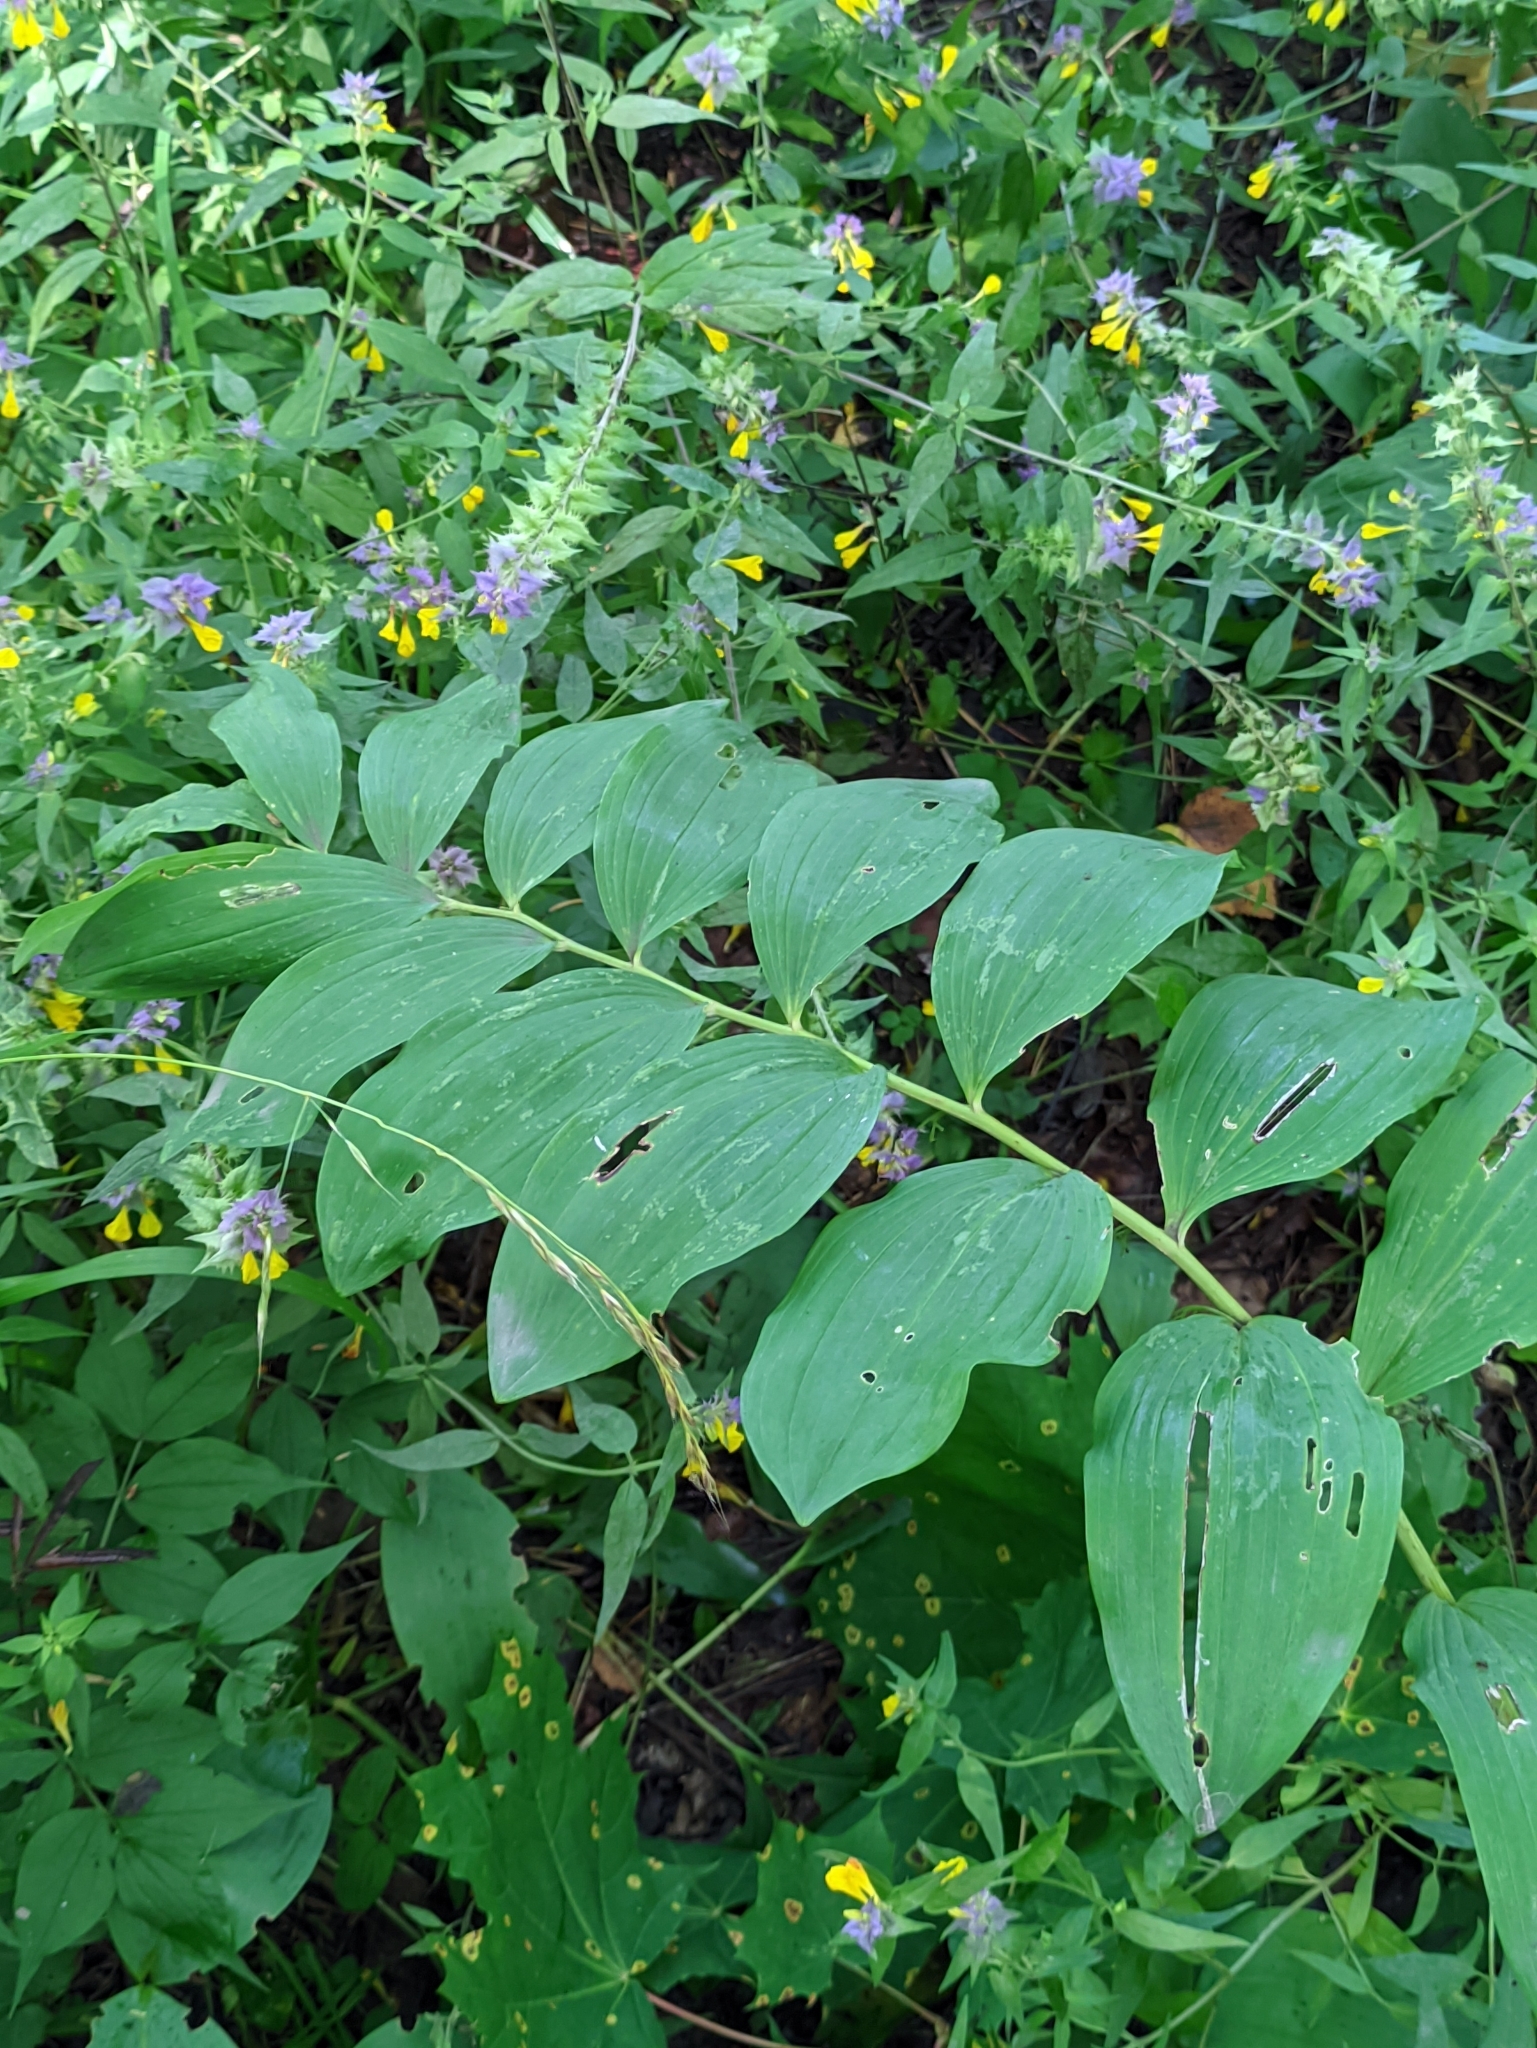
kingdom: Plantae
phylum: Tracheophyta
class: Liliopsida
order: Asparagales
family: Asparagaceae
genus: Polygonatum
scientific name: Polygonatum multiflorum
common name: Solomon's-seal
